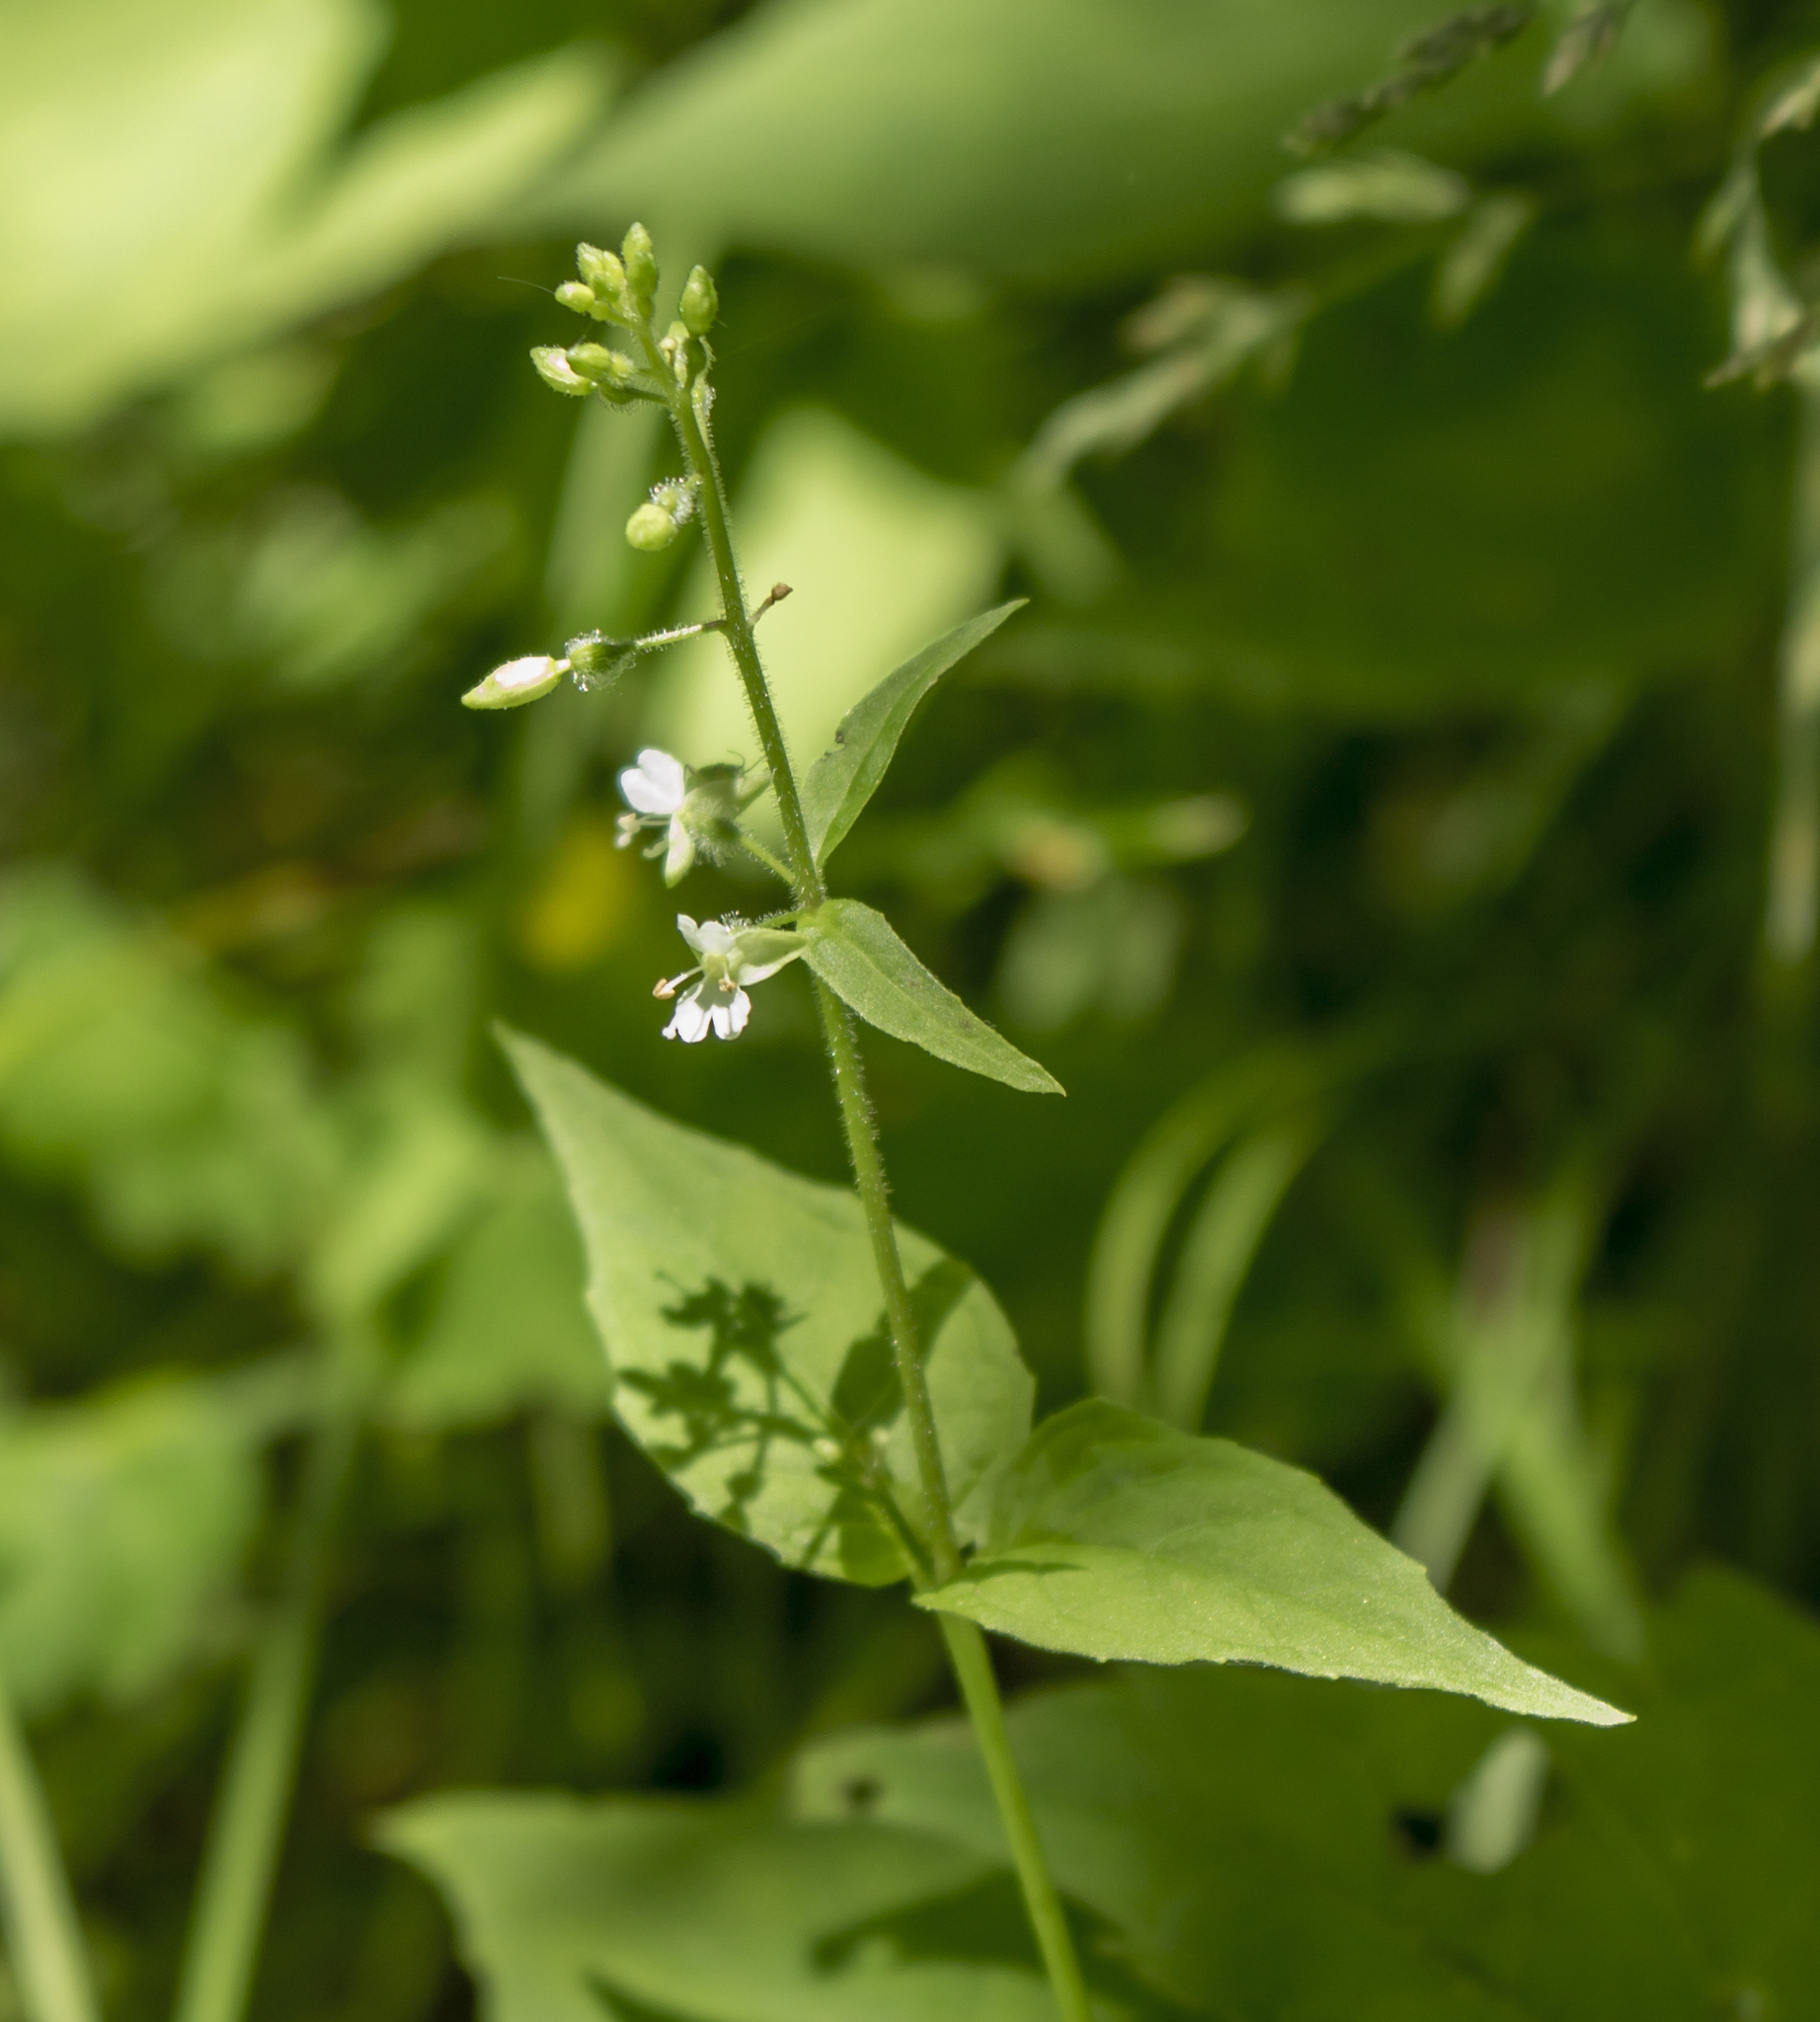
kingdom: Plantae
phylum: Tracheophyta
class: Magnoliopsida
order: Myrtales
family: Onagraceae
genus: Circaea
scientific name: Circaea canadensis
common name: Broad-leaved enchanter's nightshade
